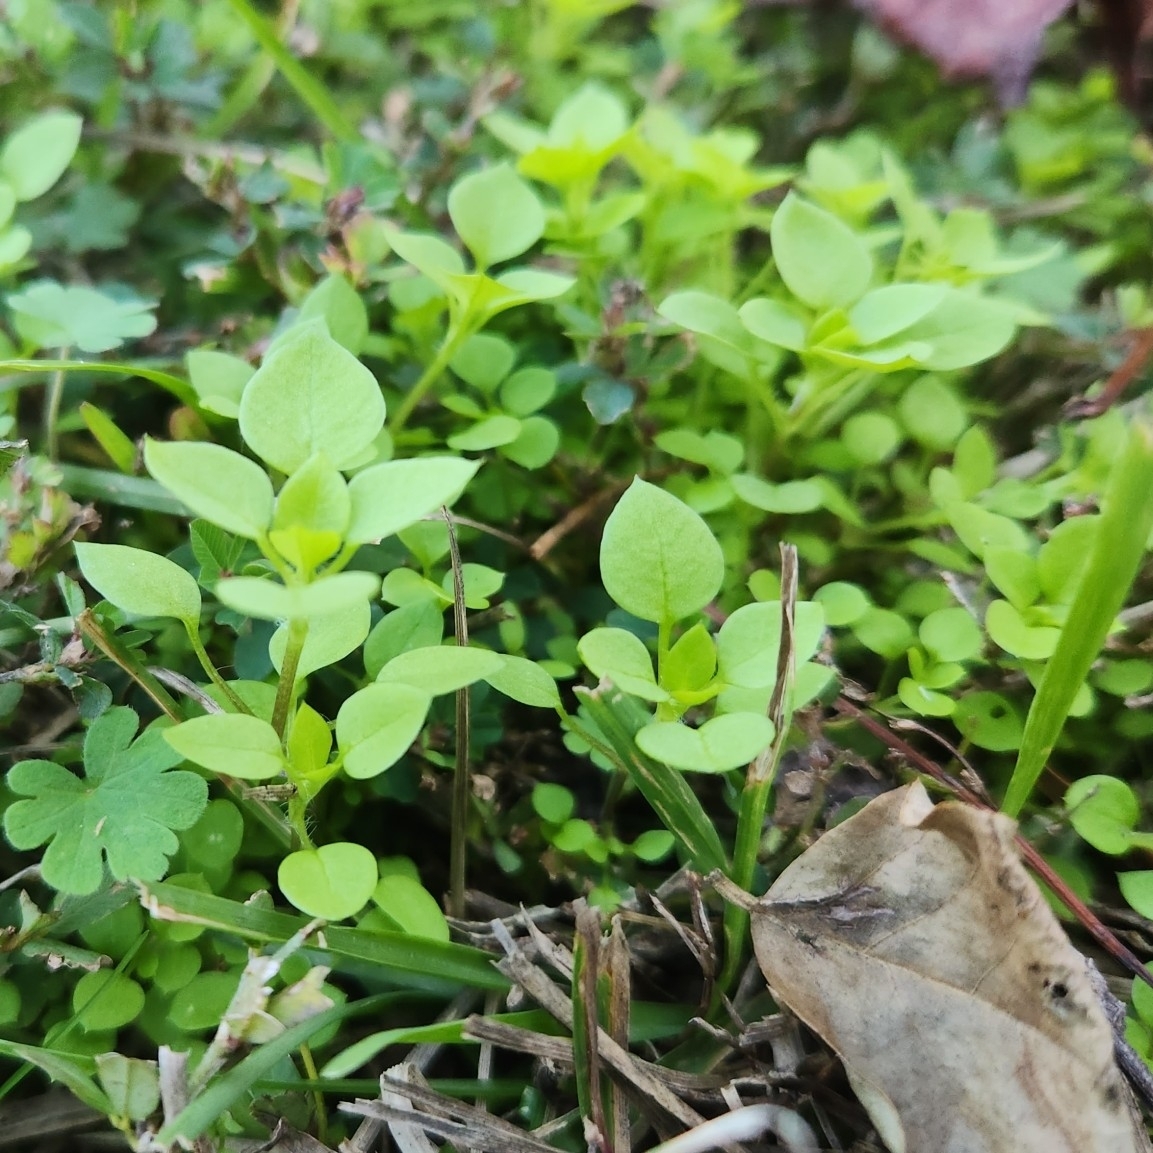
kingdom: Plantae
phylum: Tracheophyta
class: Magnoliopsida
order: Caryophyllales
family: Caryophyllaceae
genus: Stellaria
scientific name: Stellaria media
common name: Common chickweed
